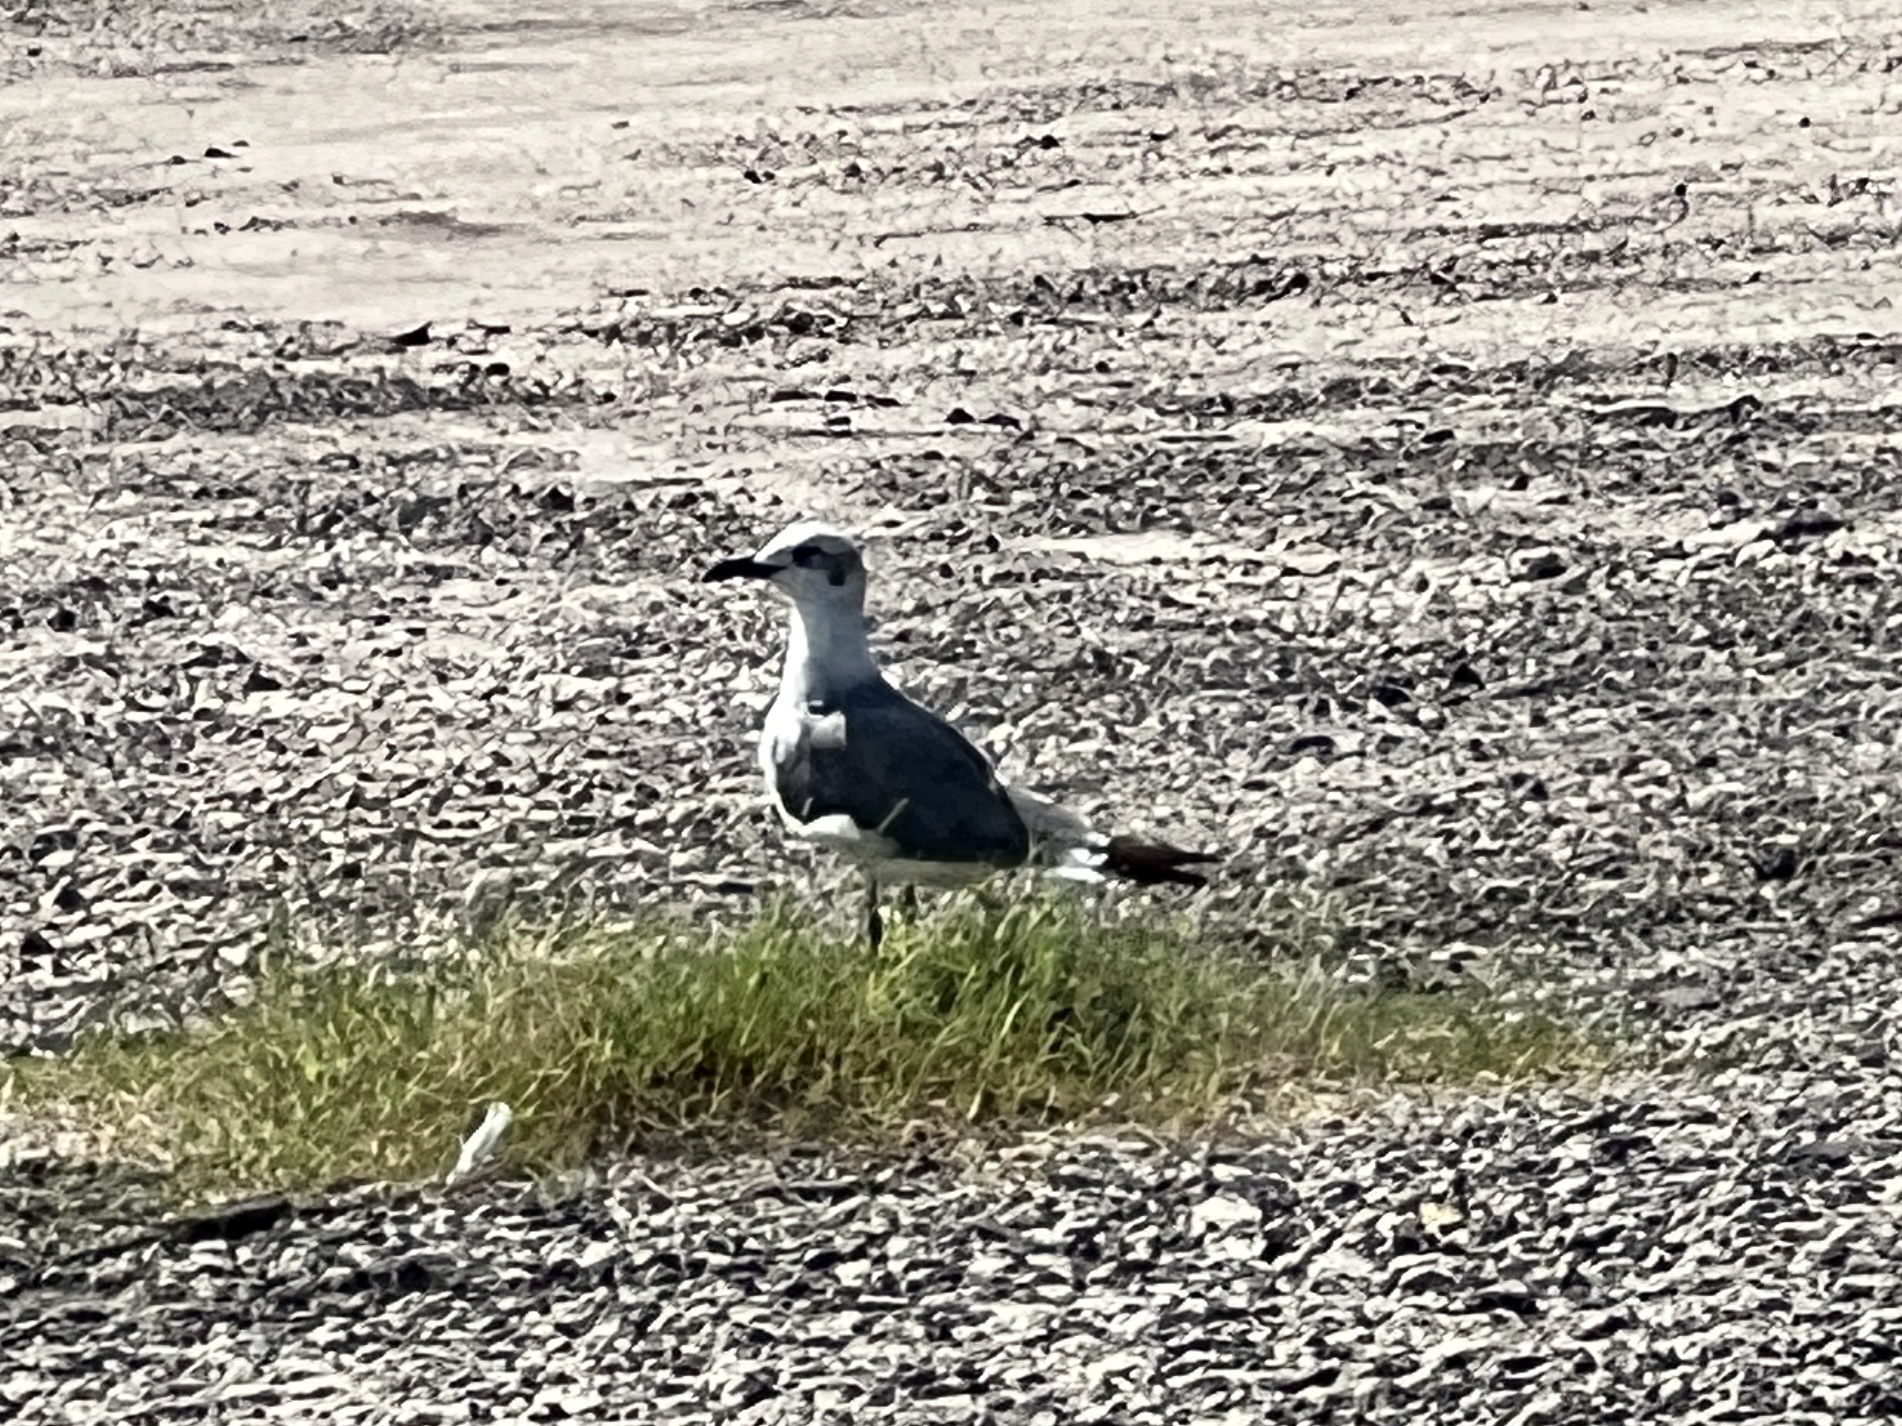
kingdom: Animalia
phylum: Chordata
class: Aves
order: Charadriiformes
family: Laridae
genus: Leucophaeus
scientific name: Leucophaeus atricilla
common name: Laughing gull
